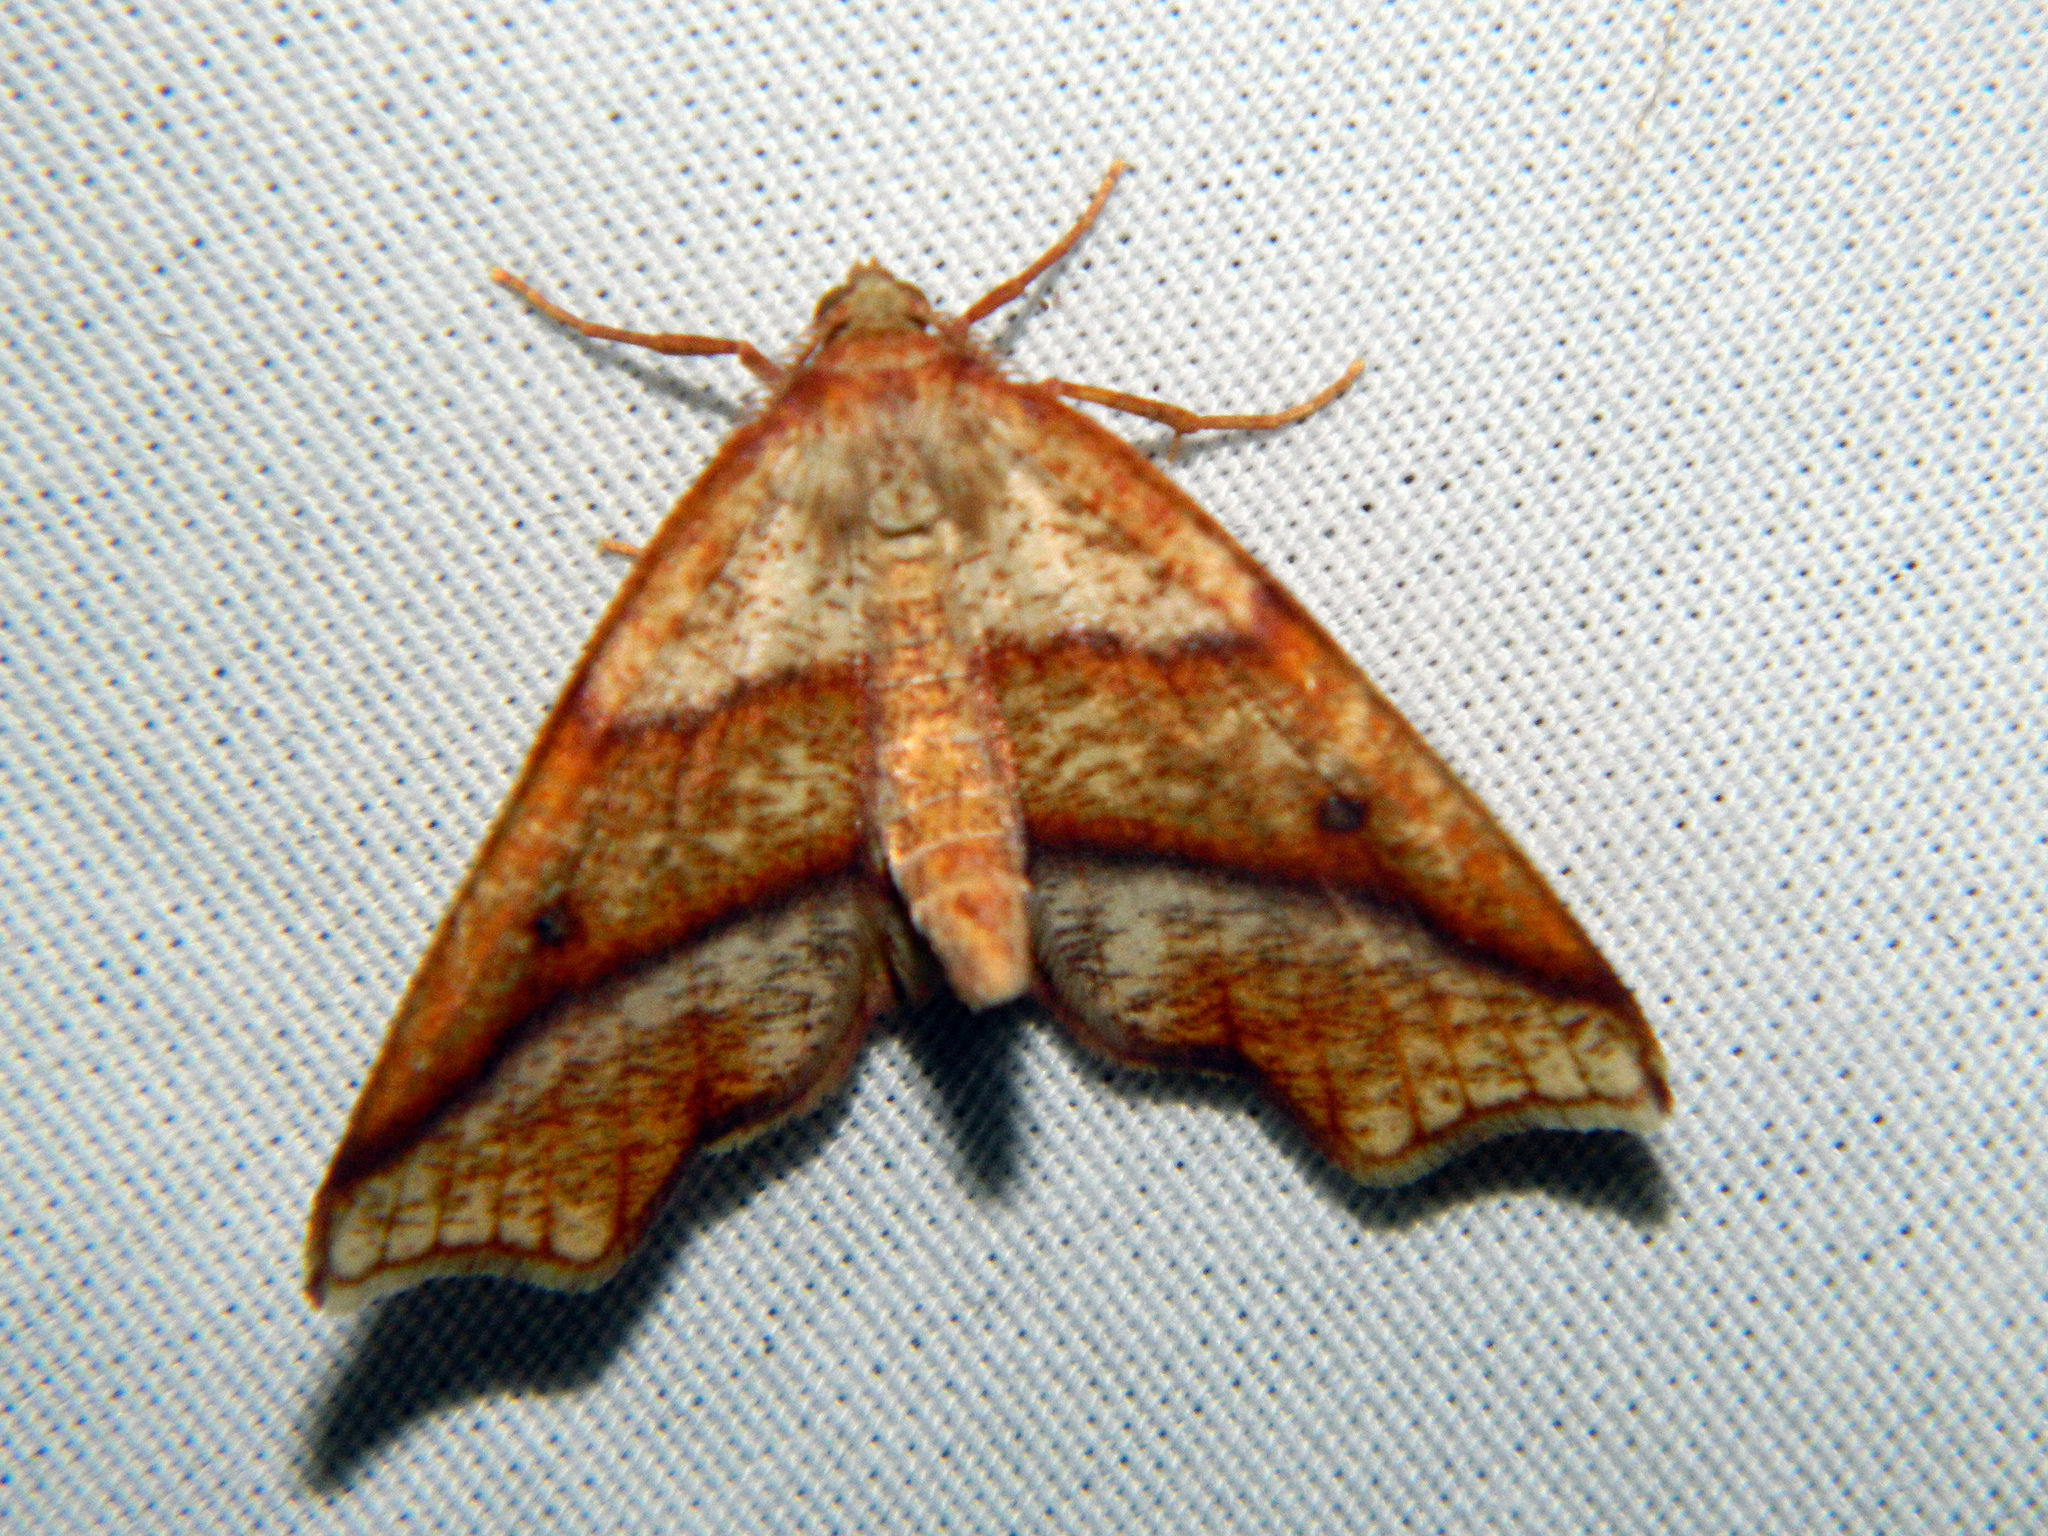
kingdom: Animalia
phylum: Arthropoda
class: Insecta
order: Lepidoptera
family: Geometridae
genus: Plagodis
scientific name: Plagodis alcoolaria
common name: Hollow-spotted plagodis
